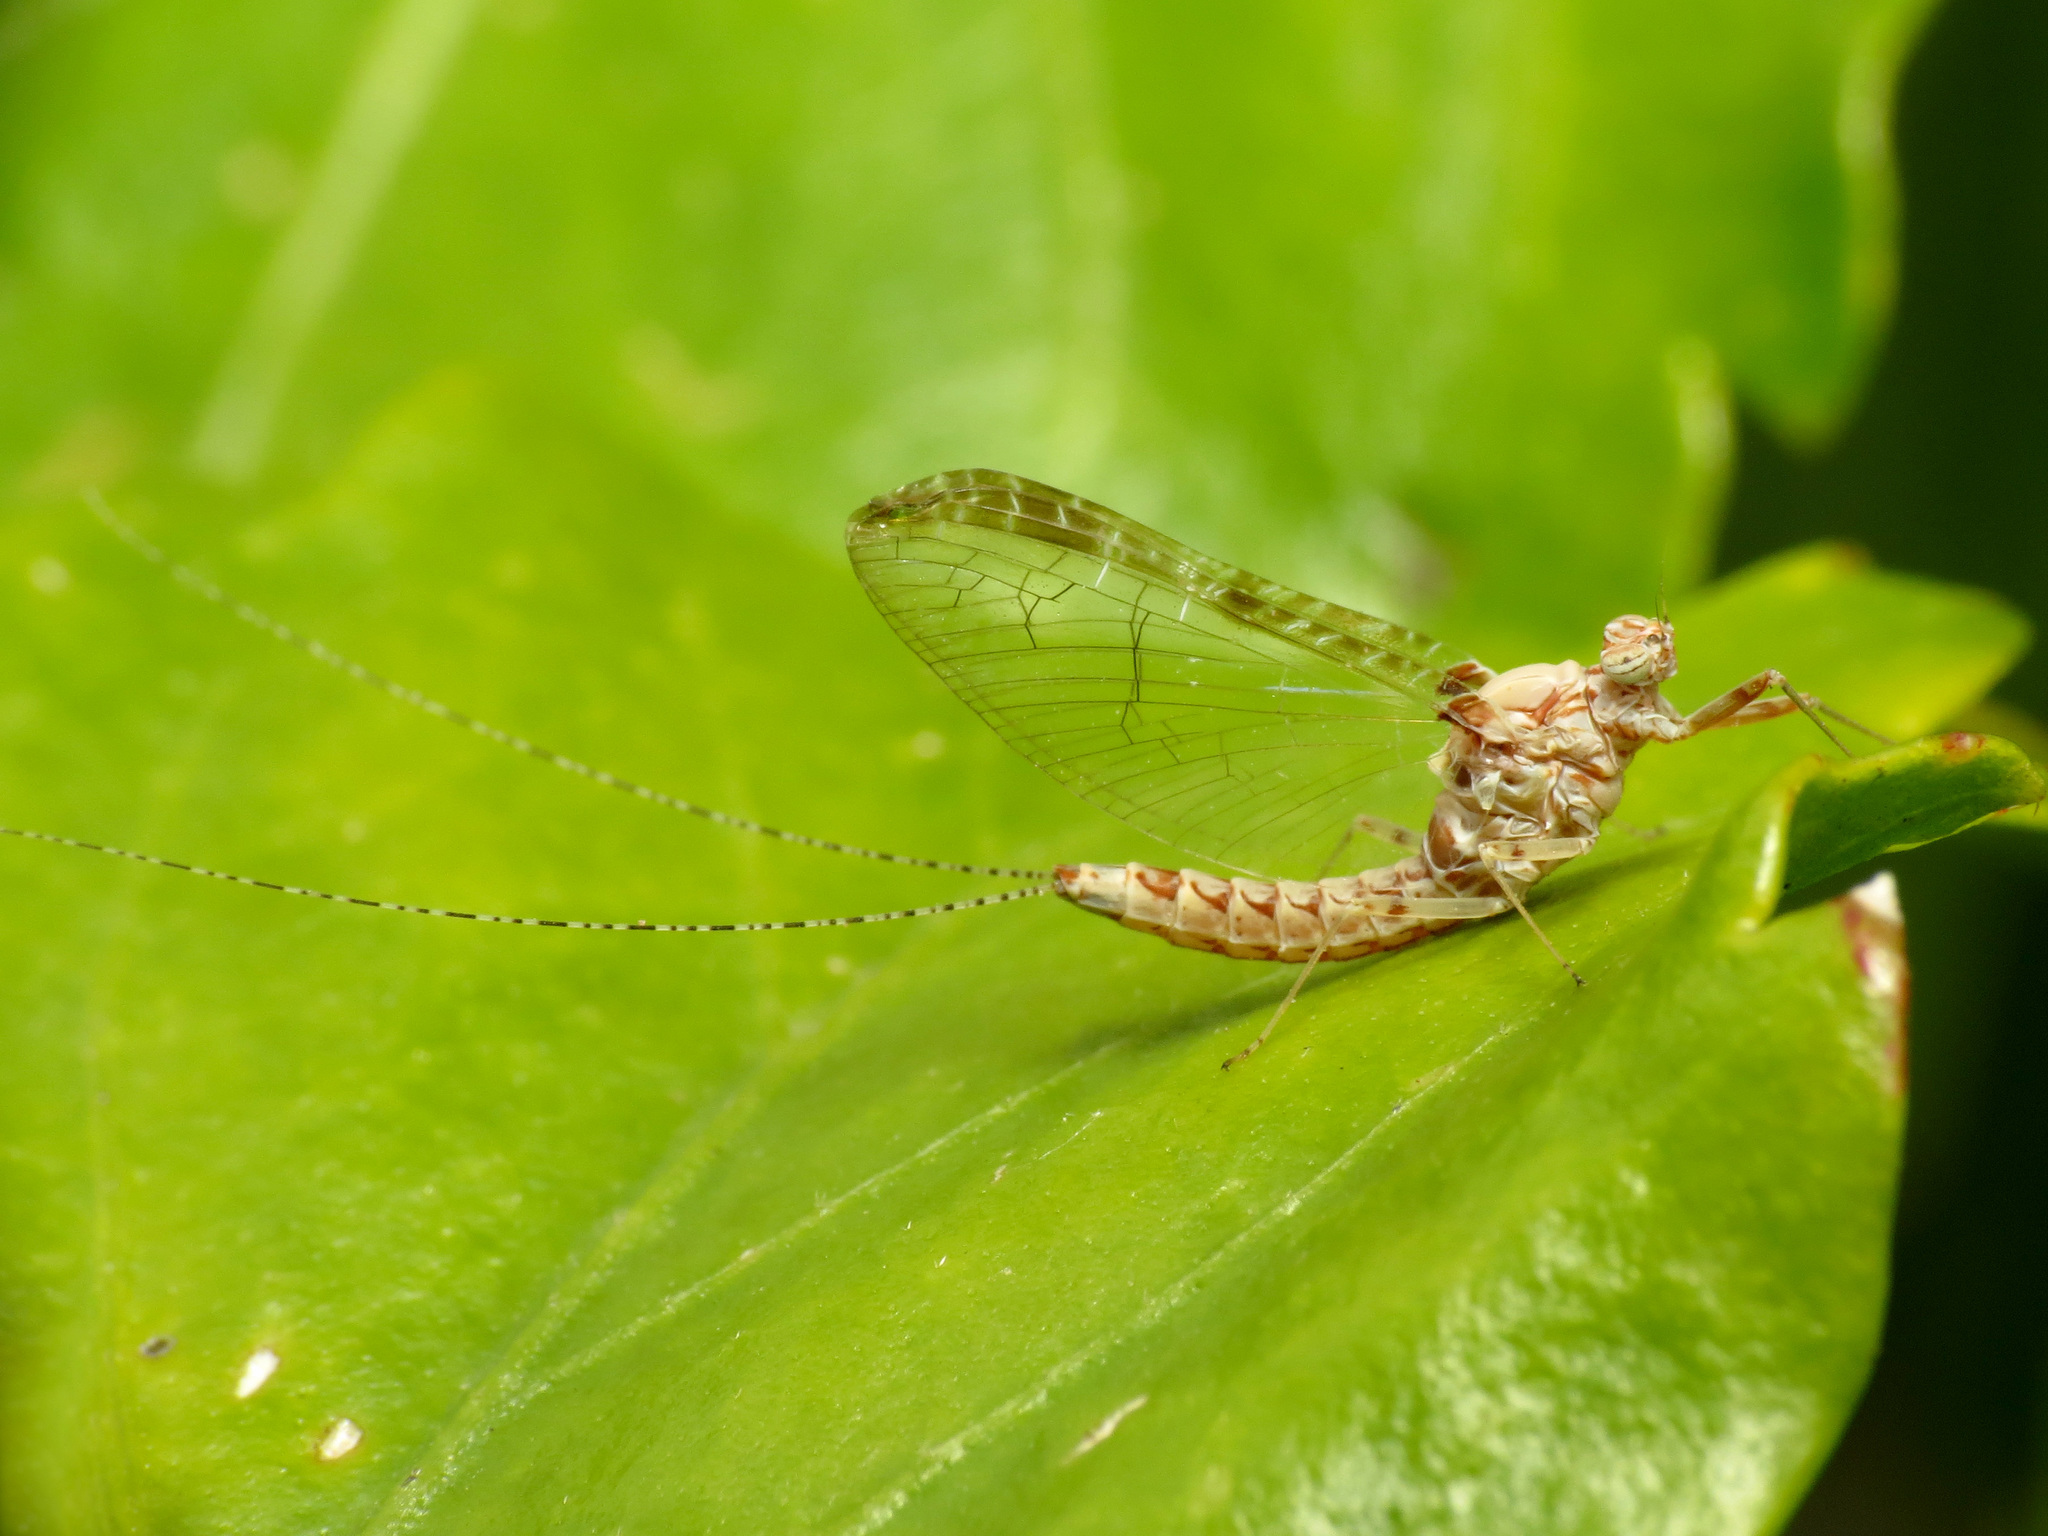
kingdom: Animalia
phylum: Arthropoda
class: Insecta
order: Ephemeroptera
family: Baetidae
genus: Cloeon
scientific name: Cloeon dipterum
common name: Pond olive
